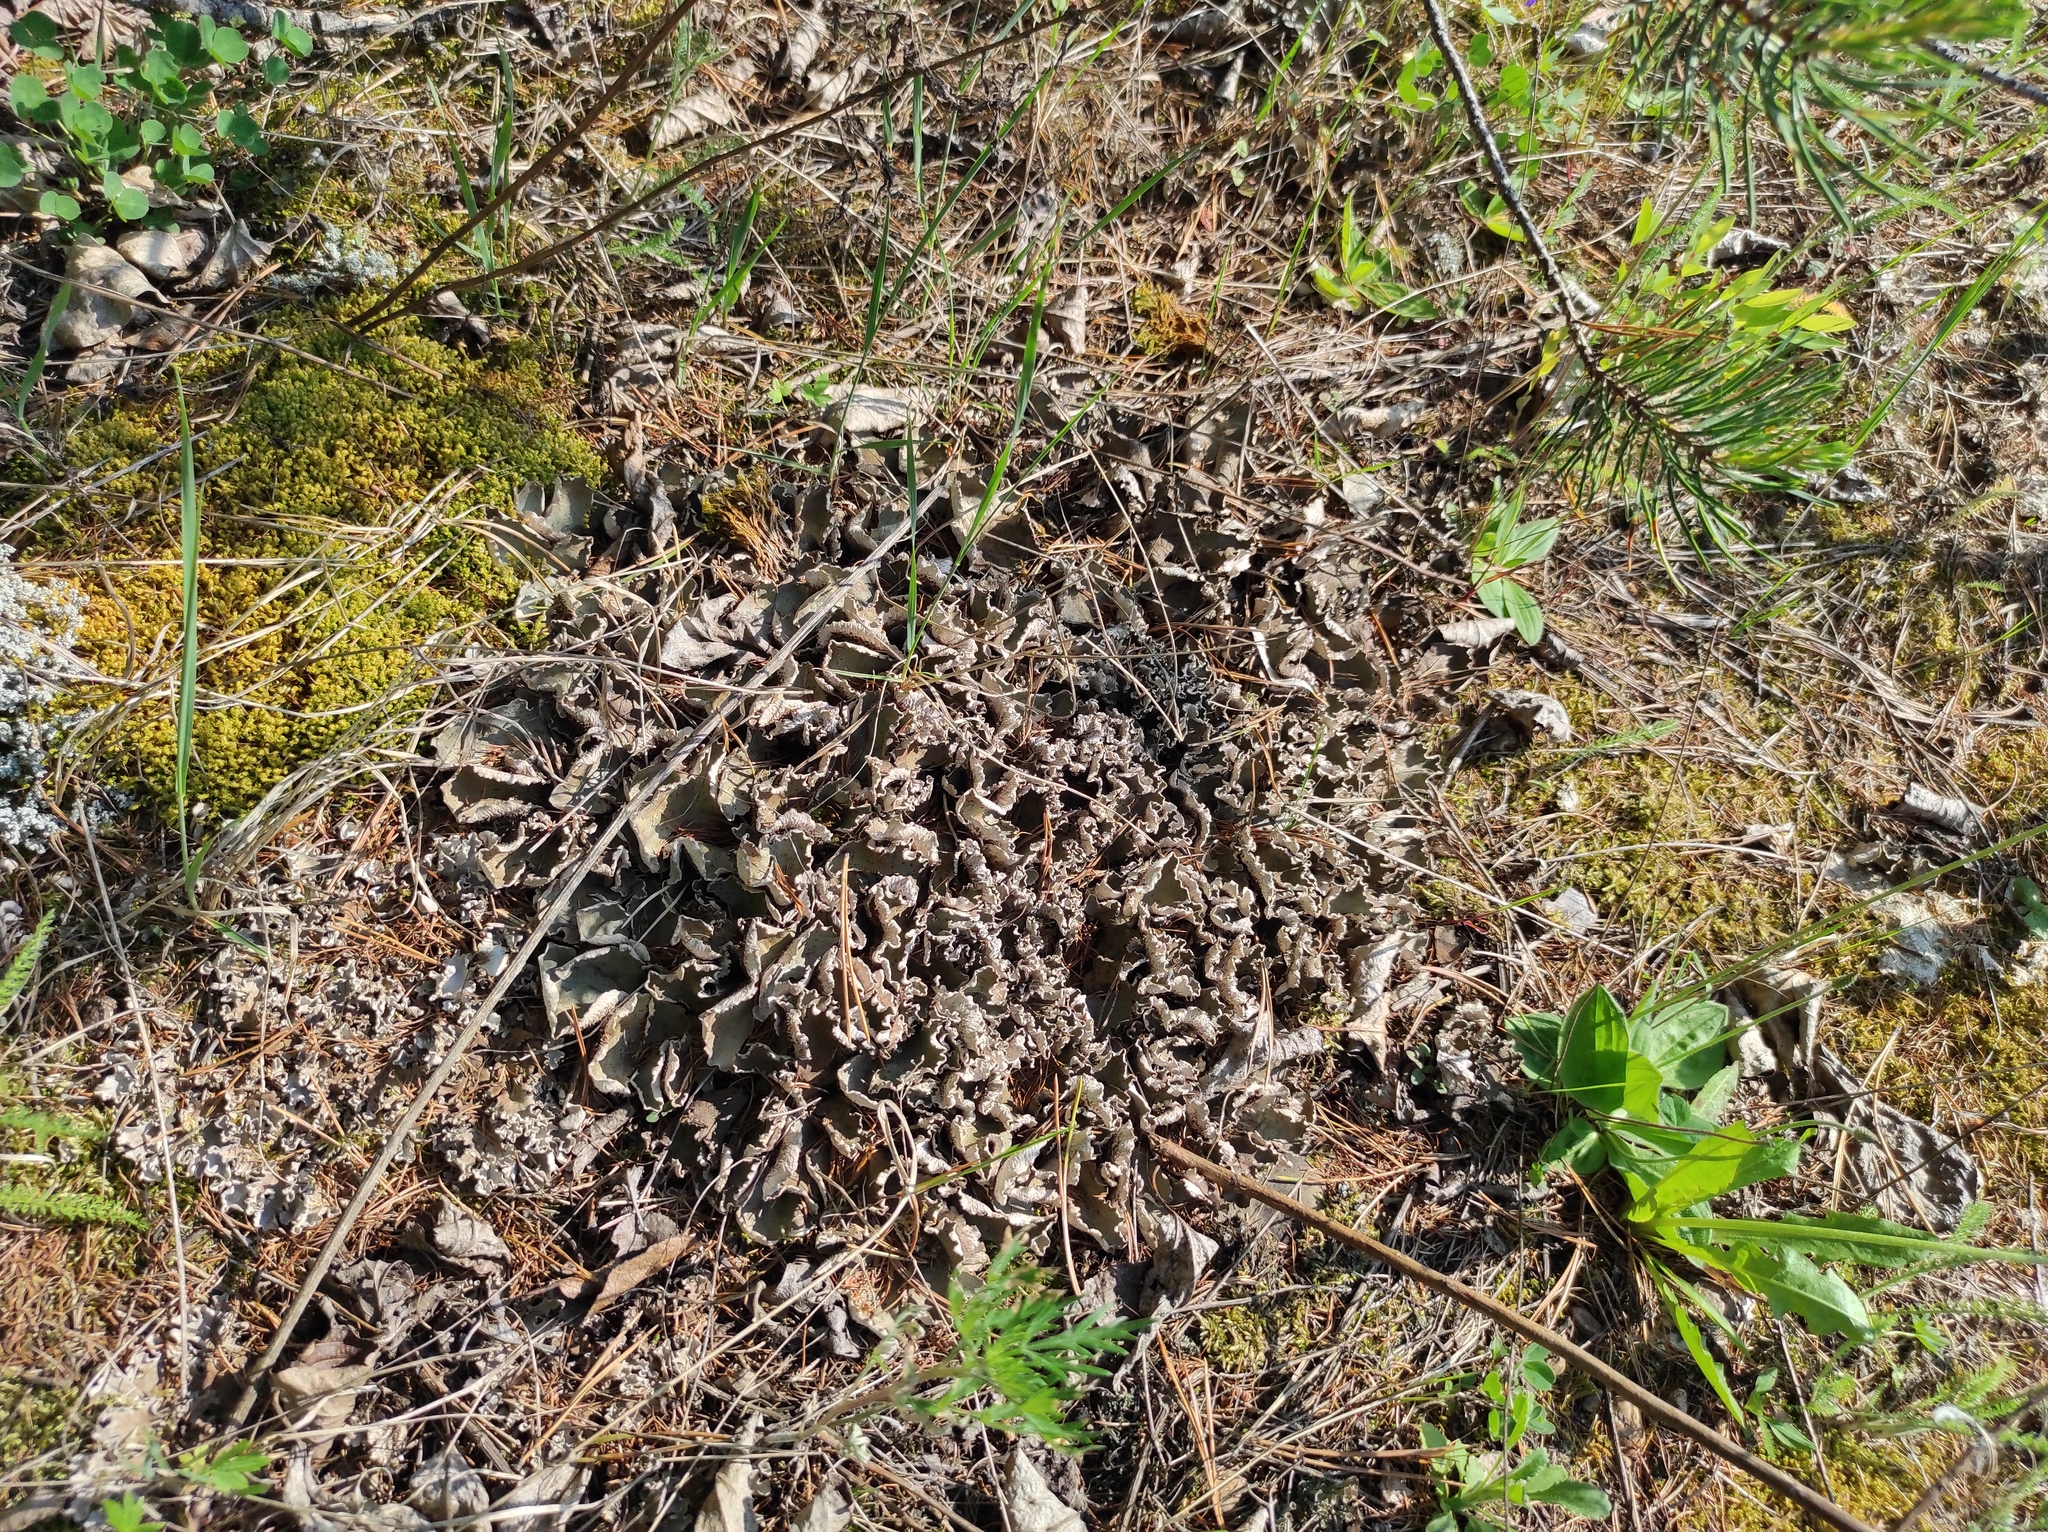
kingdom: Plantae
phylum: Tracheophyta
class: Pinopsida
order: Pinales
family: Pinaceae
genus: Pinus
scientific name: Pinus sylvestris
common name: Scots pine
